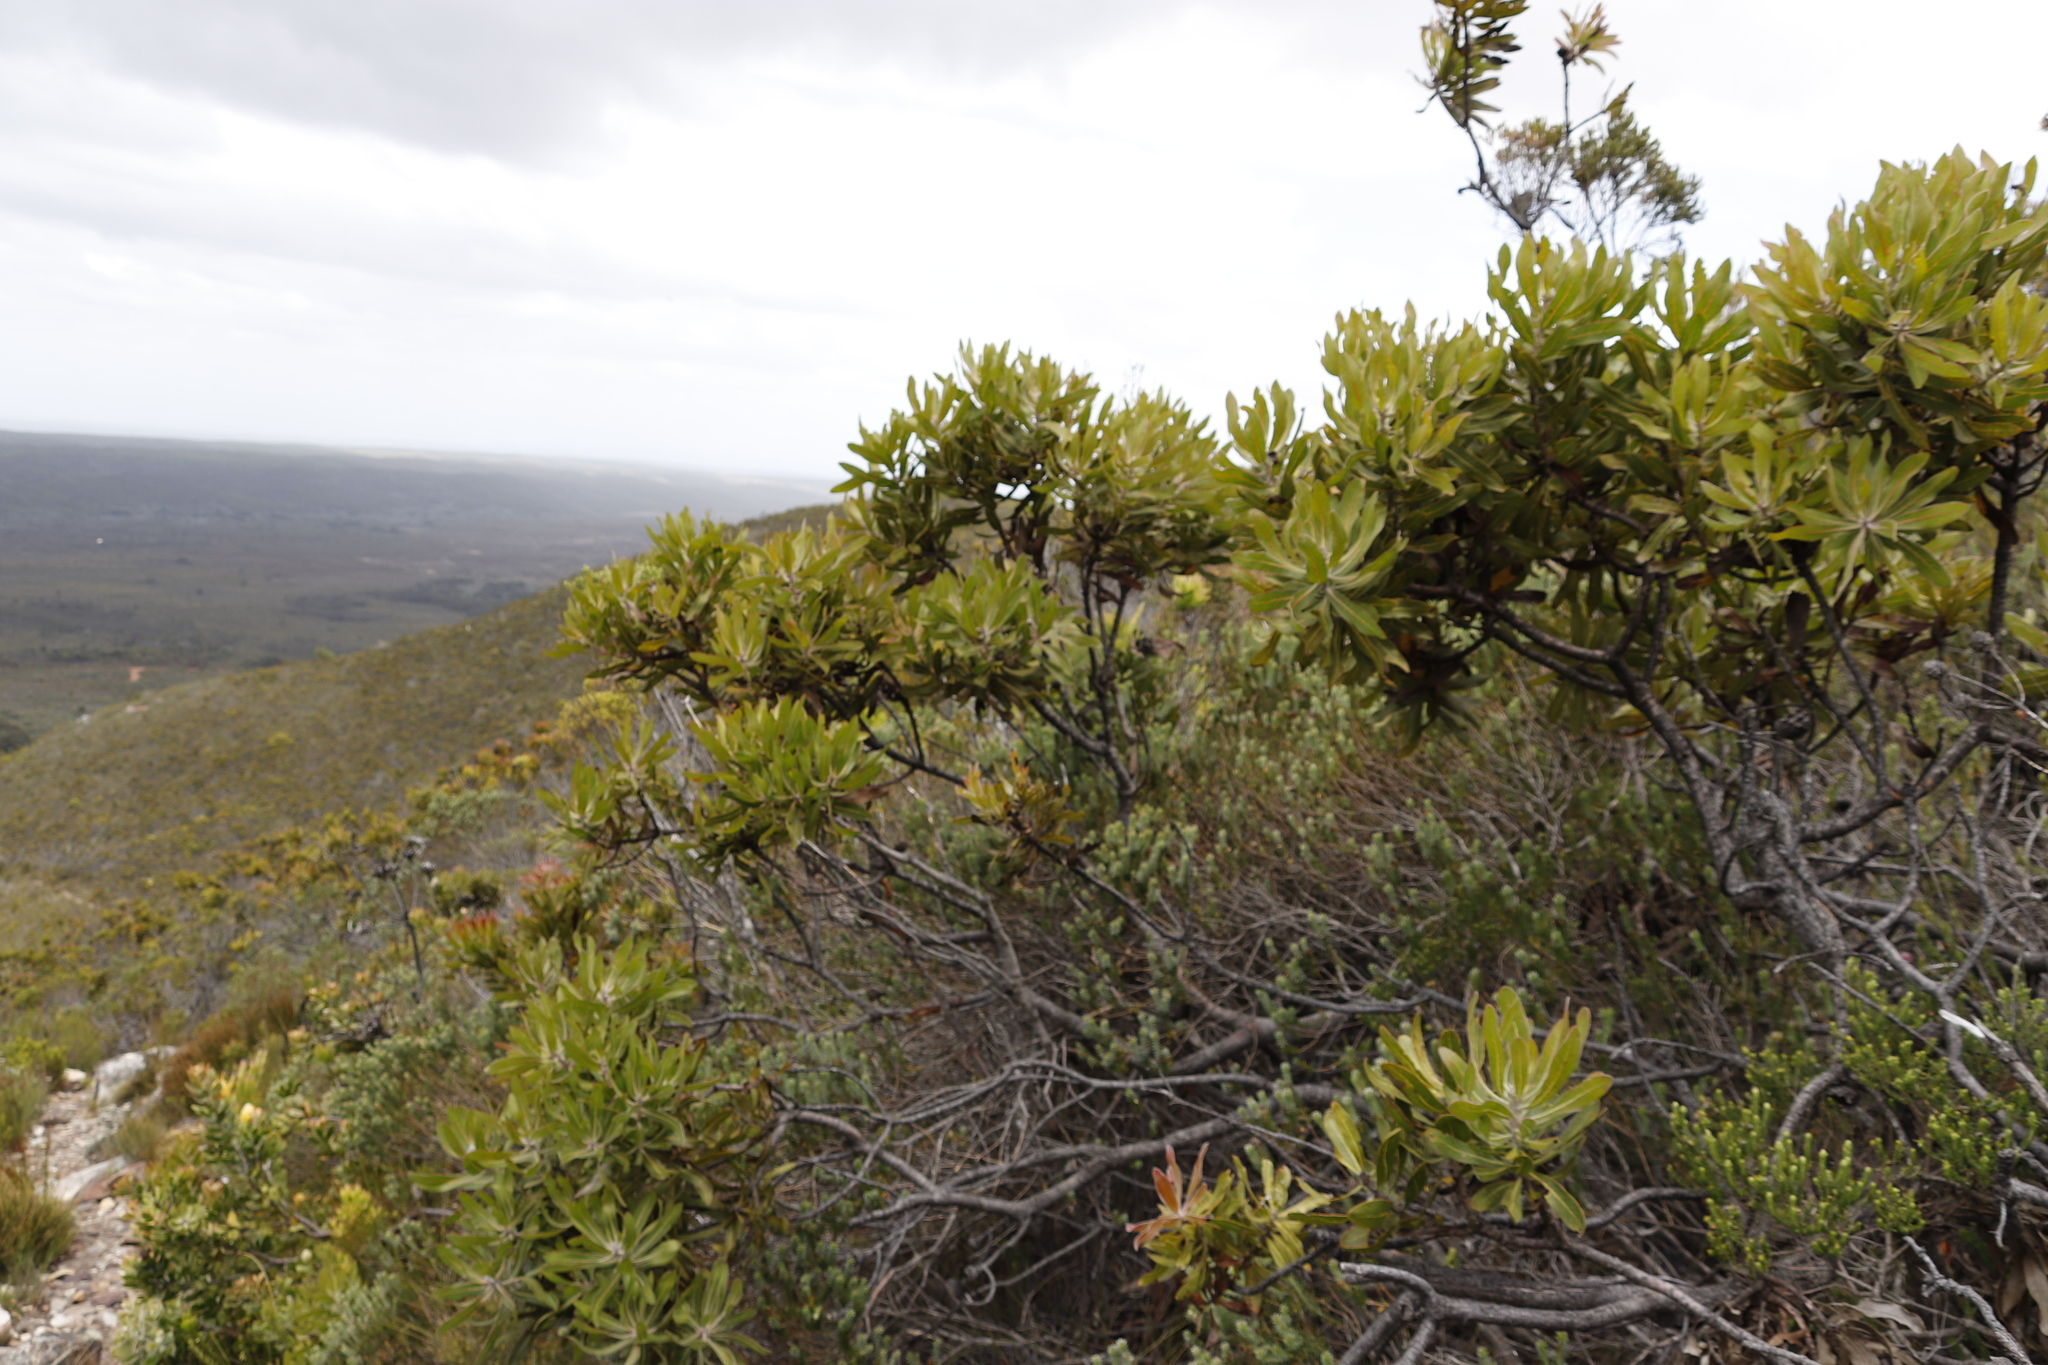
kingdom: Plantae
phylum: Tracheophyta
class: Magnoliopsida
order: Proteales
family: Proteaceae
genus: Protea
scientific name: Protea neriifolia
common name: Blue sugarbush
